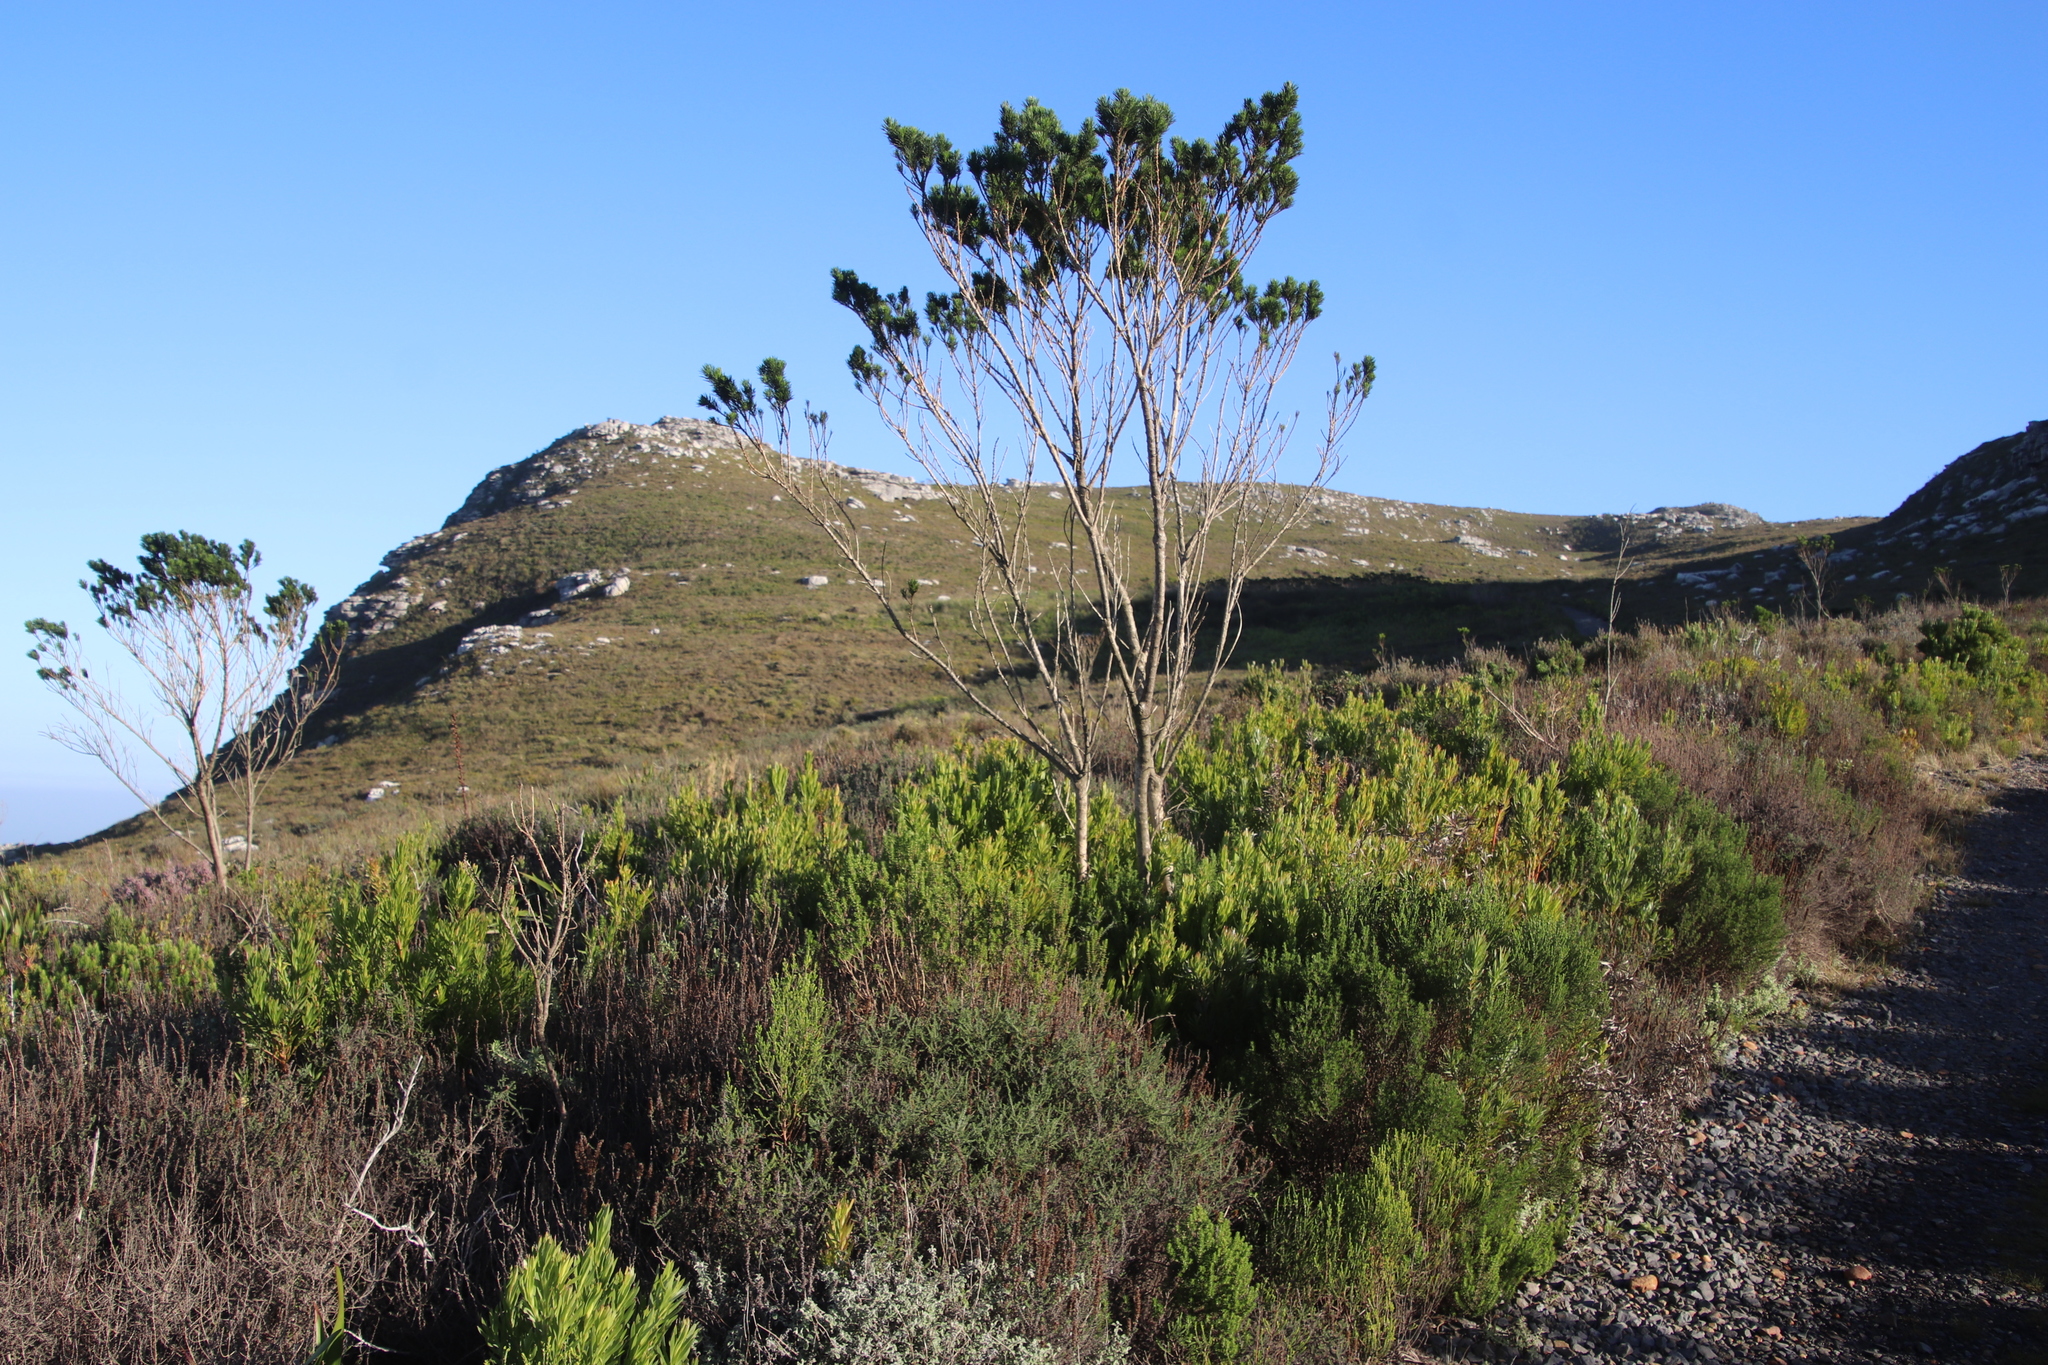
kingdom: Plantae
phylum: Tracheophyta
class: Magnoliopsida
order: Fabales
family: Fabaceae
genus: Psoralea
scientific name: Psoralea pinnata
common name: African scurfpea
